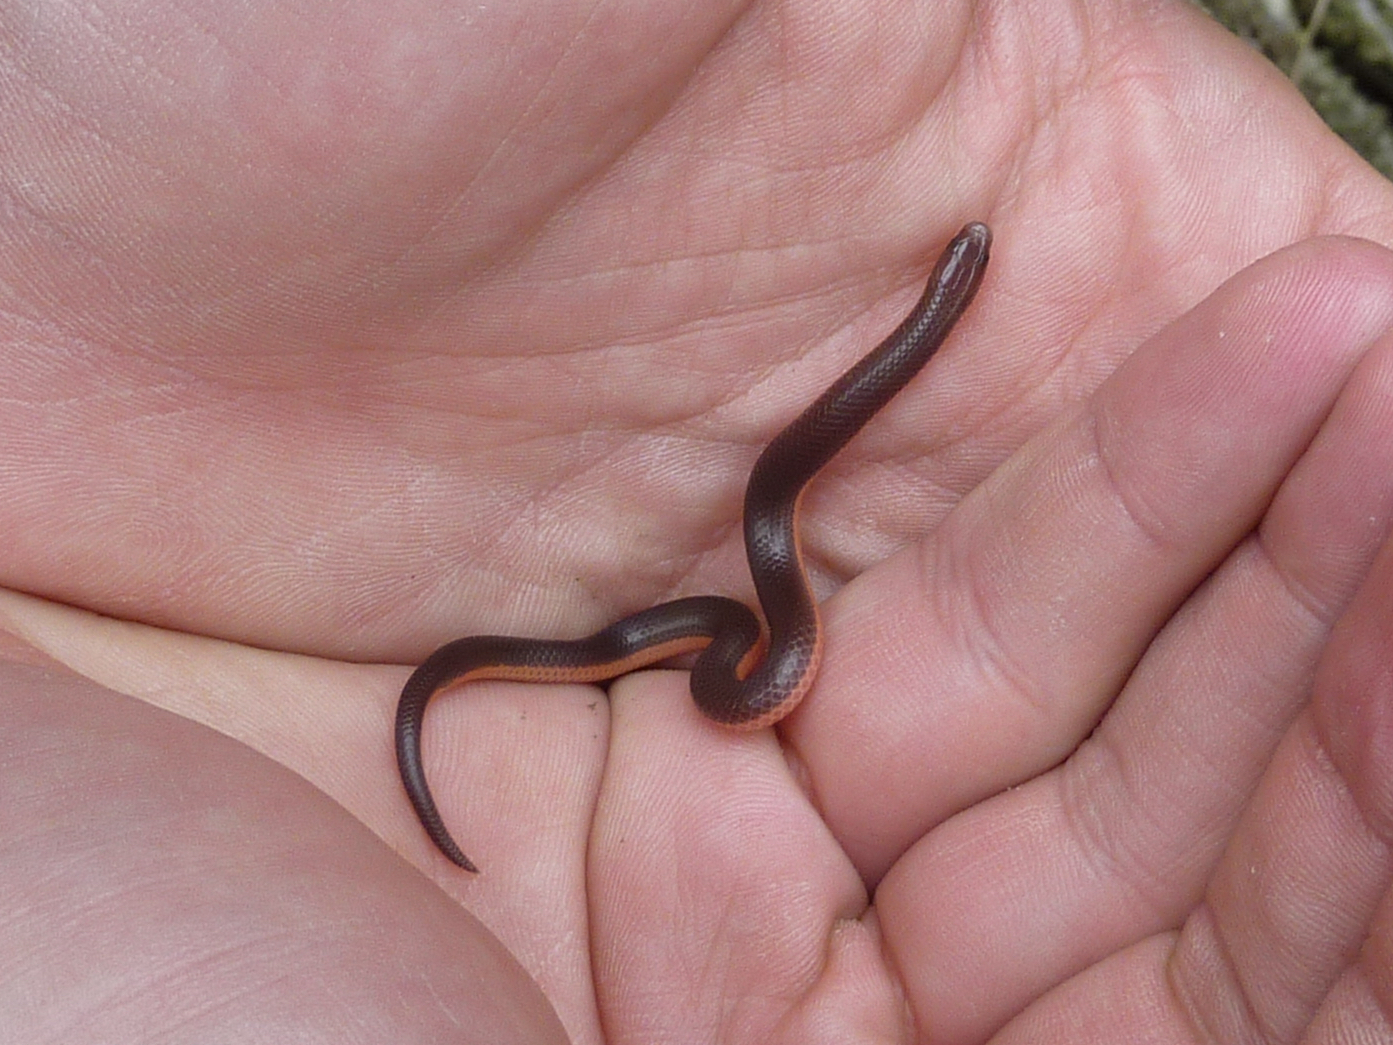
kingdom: Animalia
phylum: Chordata
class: Squamata
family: Colubridae
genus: Carphophis
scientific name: Carphophis amoenus
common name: Eastern worm snake
